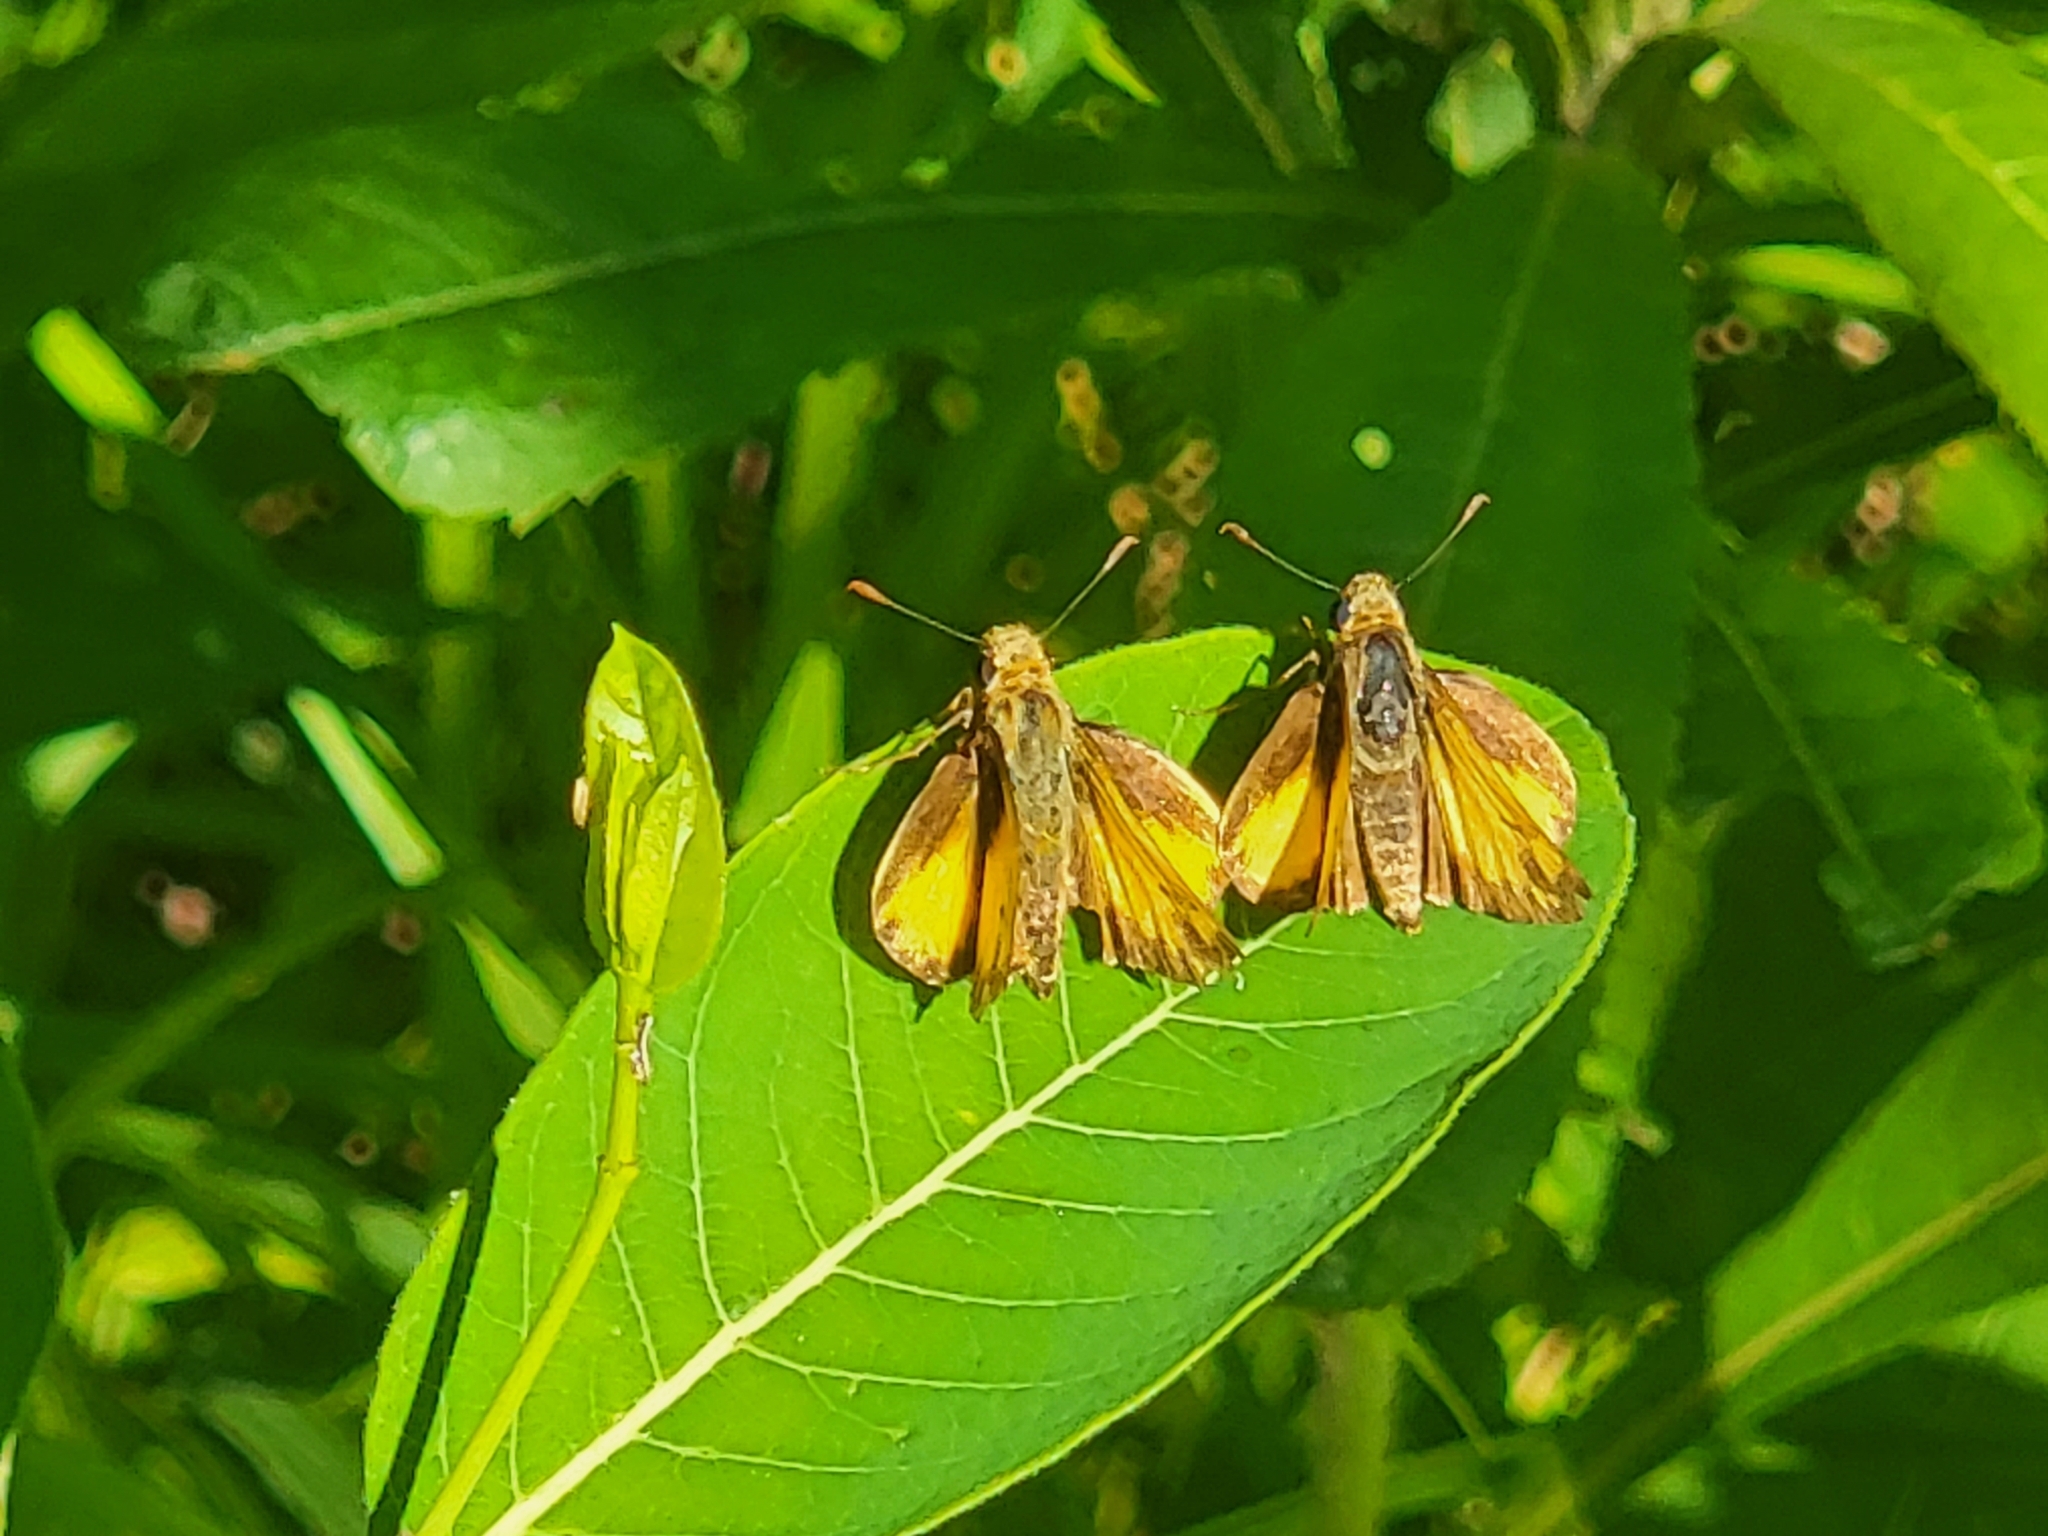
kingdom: Animalia
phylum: Arthropoda
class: Insecta
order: Lepidoptera
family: Hesperiidae
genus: Lon
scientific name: Lon zabulon
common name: Zabulon skipper
